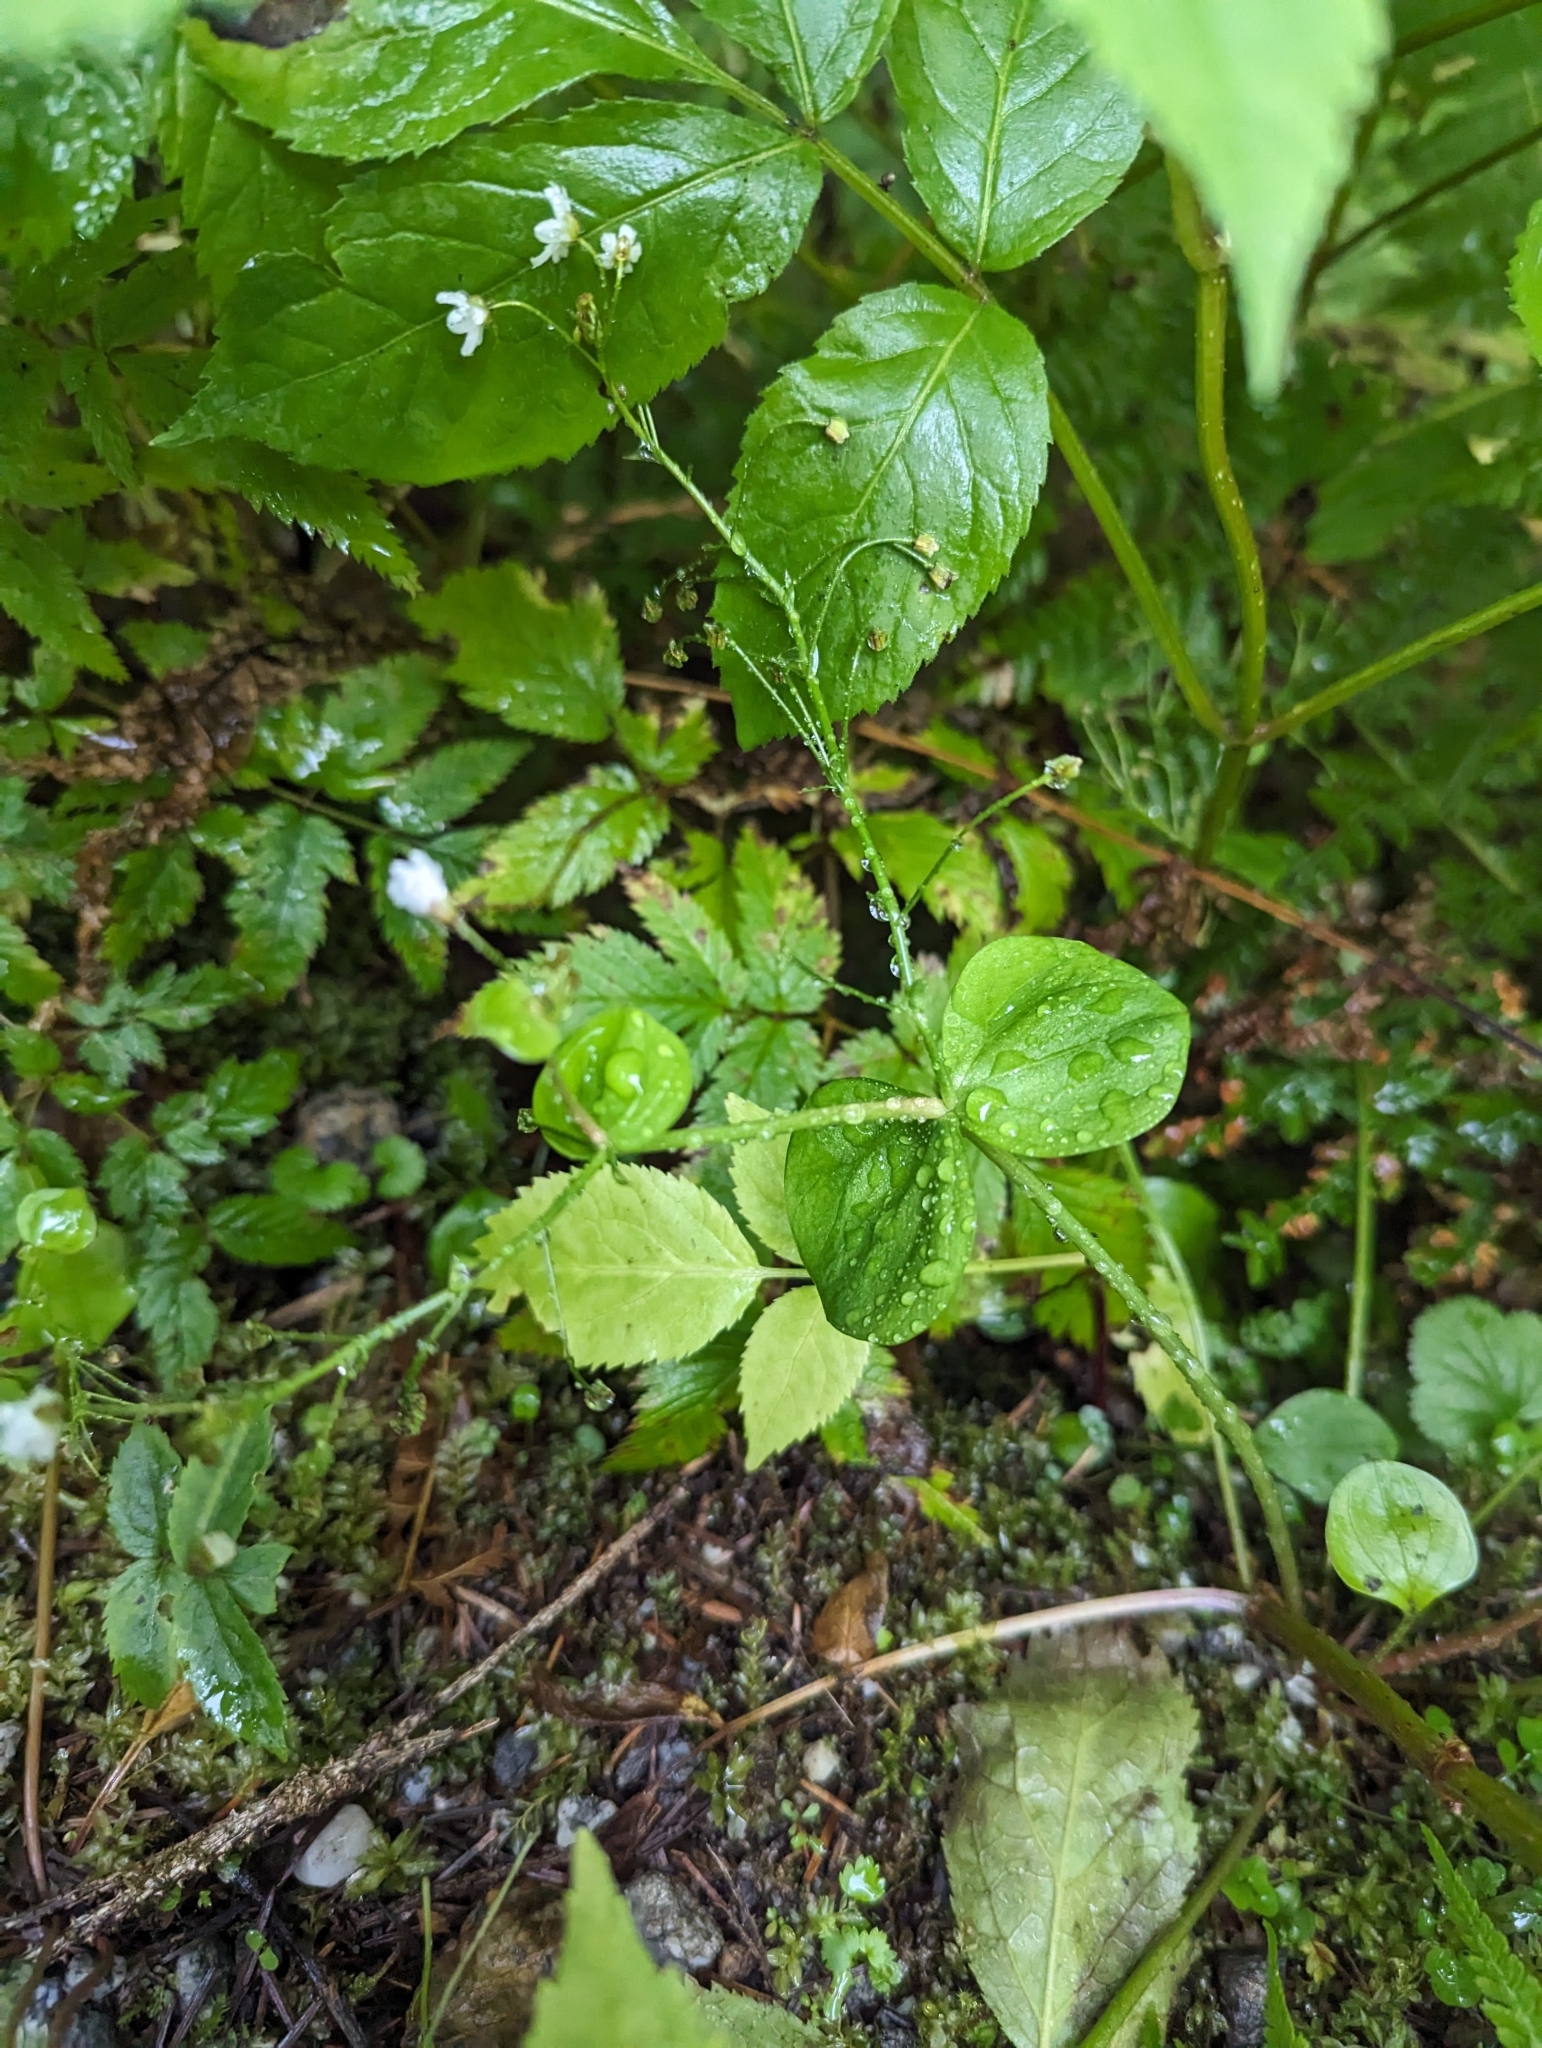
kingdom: Plantae
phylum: Tracheophyta
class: Magnoliopsida
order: Caryophyllales
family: Montiaceae
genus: Claytonia
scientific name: Claytonia sibirica
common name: Pink purslane
